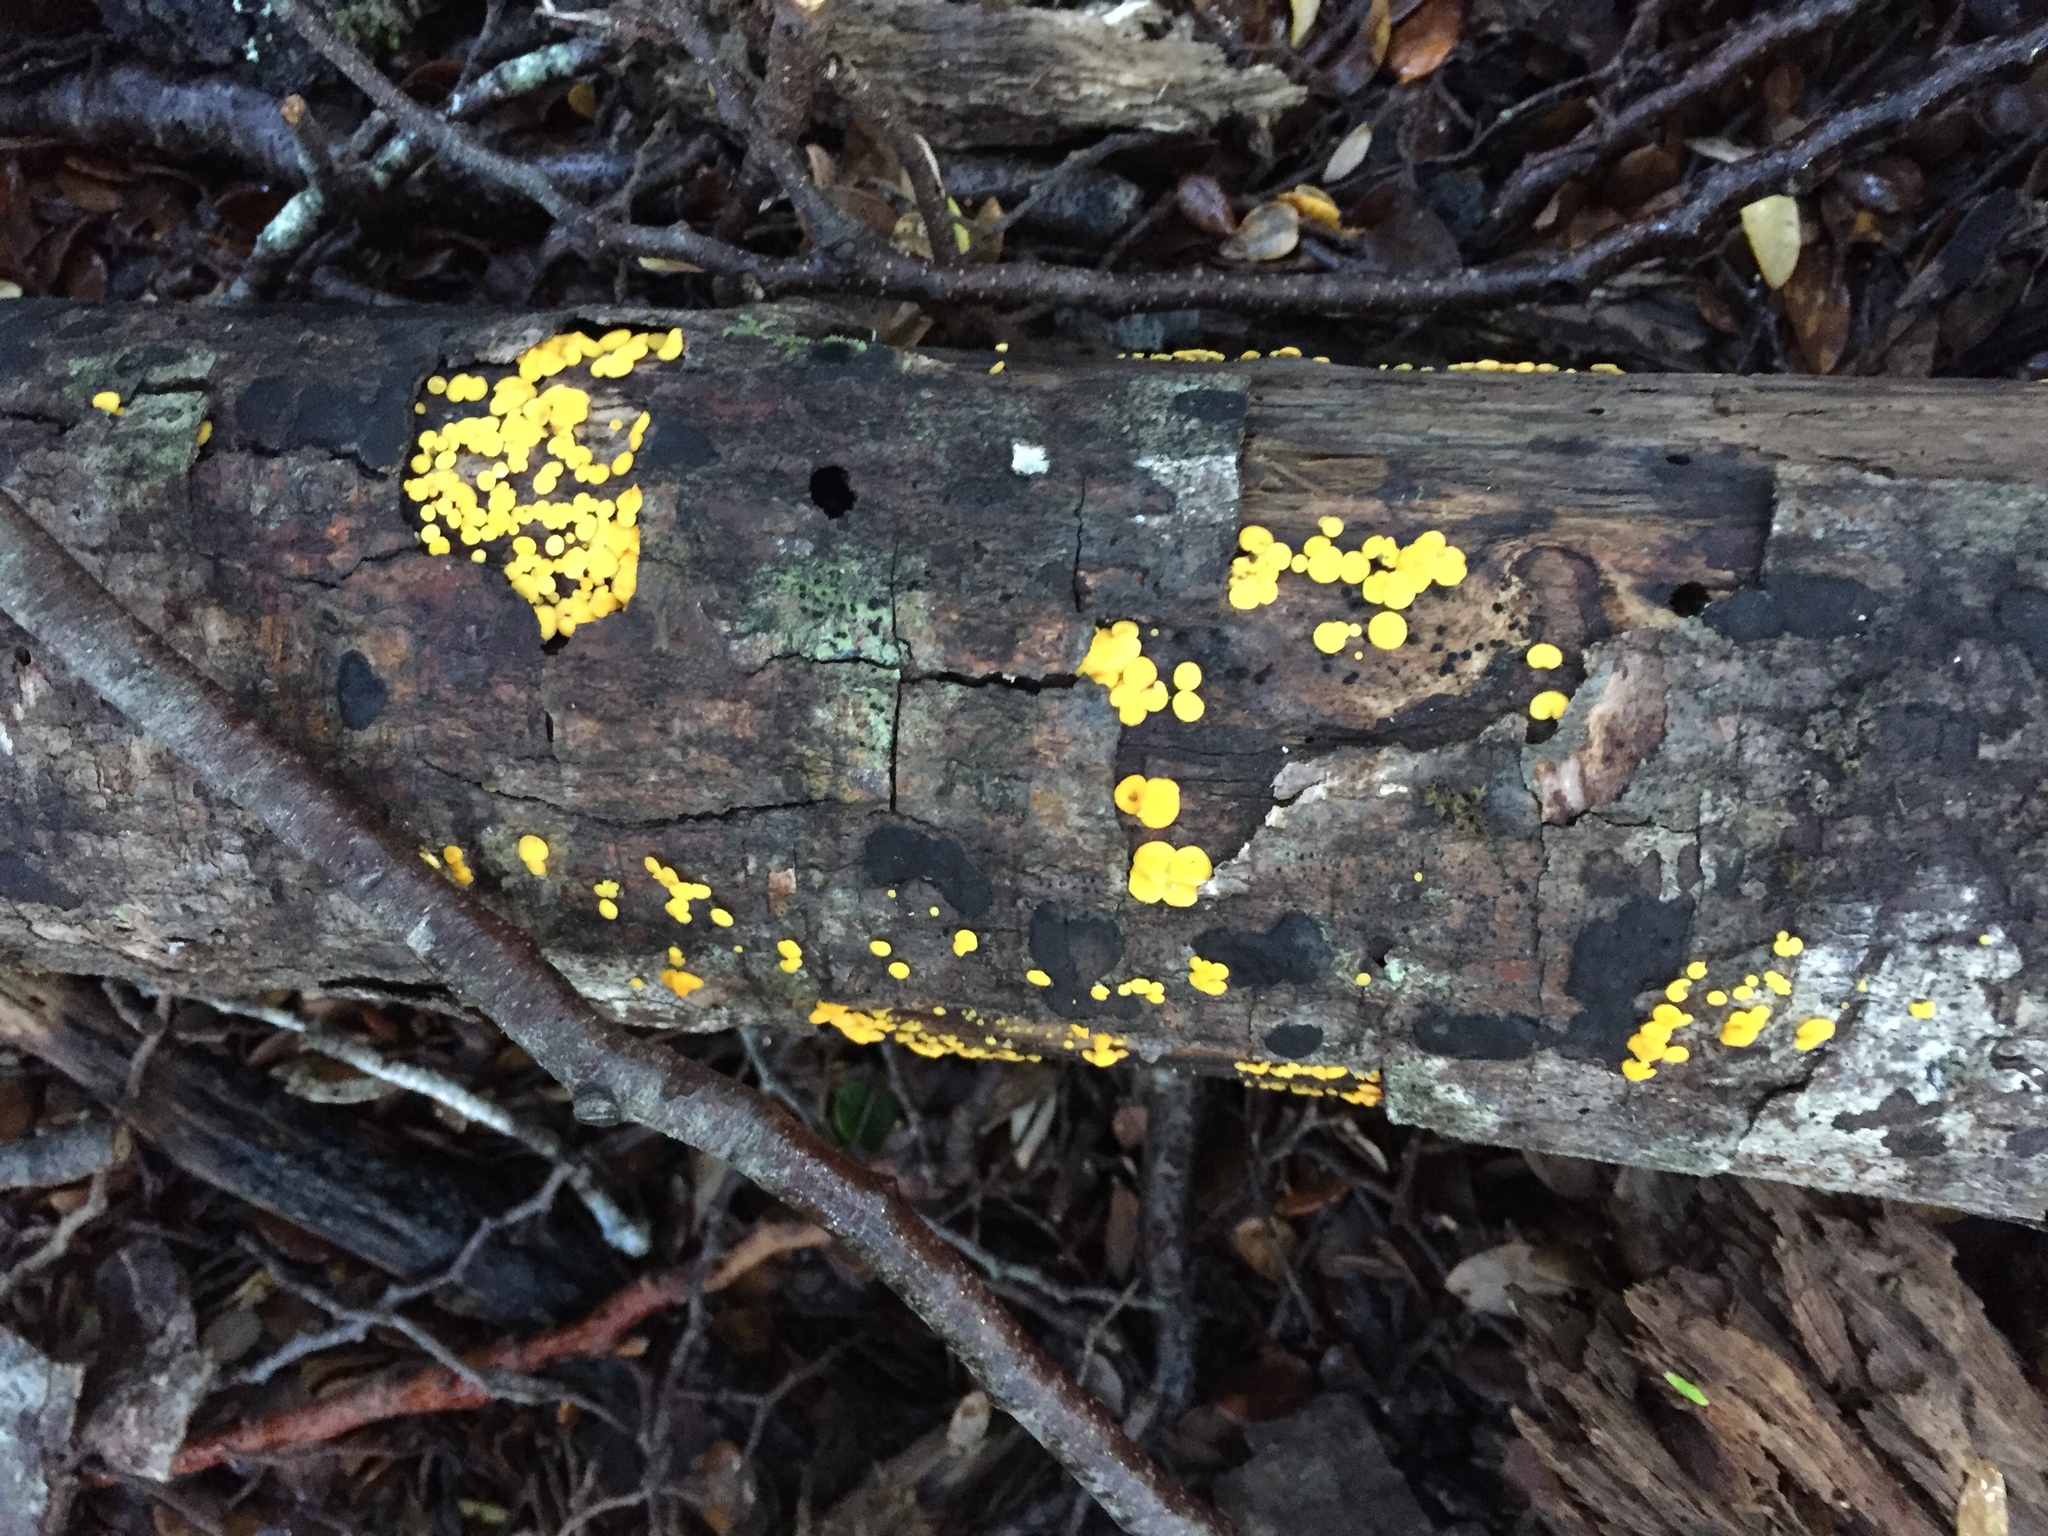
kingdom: Fungi
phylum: Ascomycota
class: Leotiomycetes
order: Helotiales
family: Pezizellaceae
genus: Calycina
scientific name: Calycina citrina
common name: Yellow fairy cups
